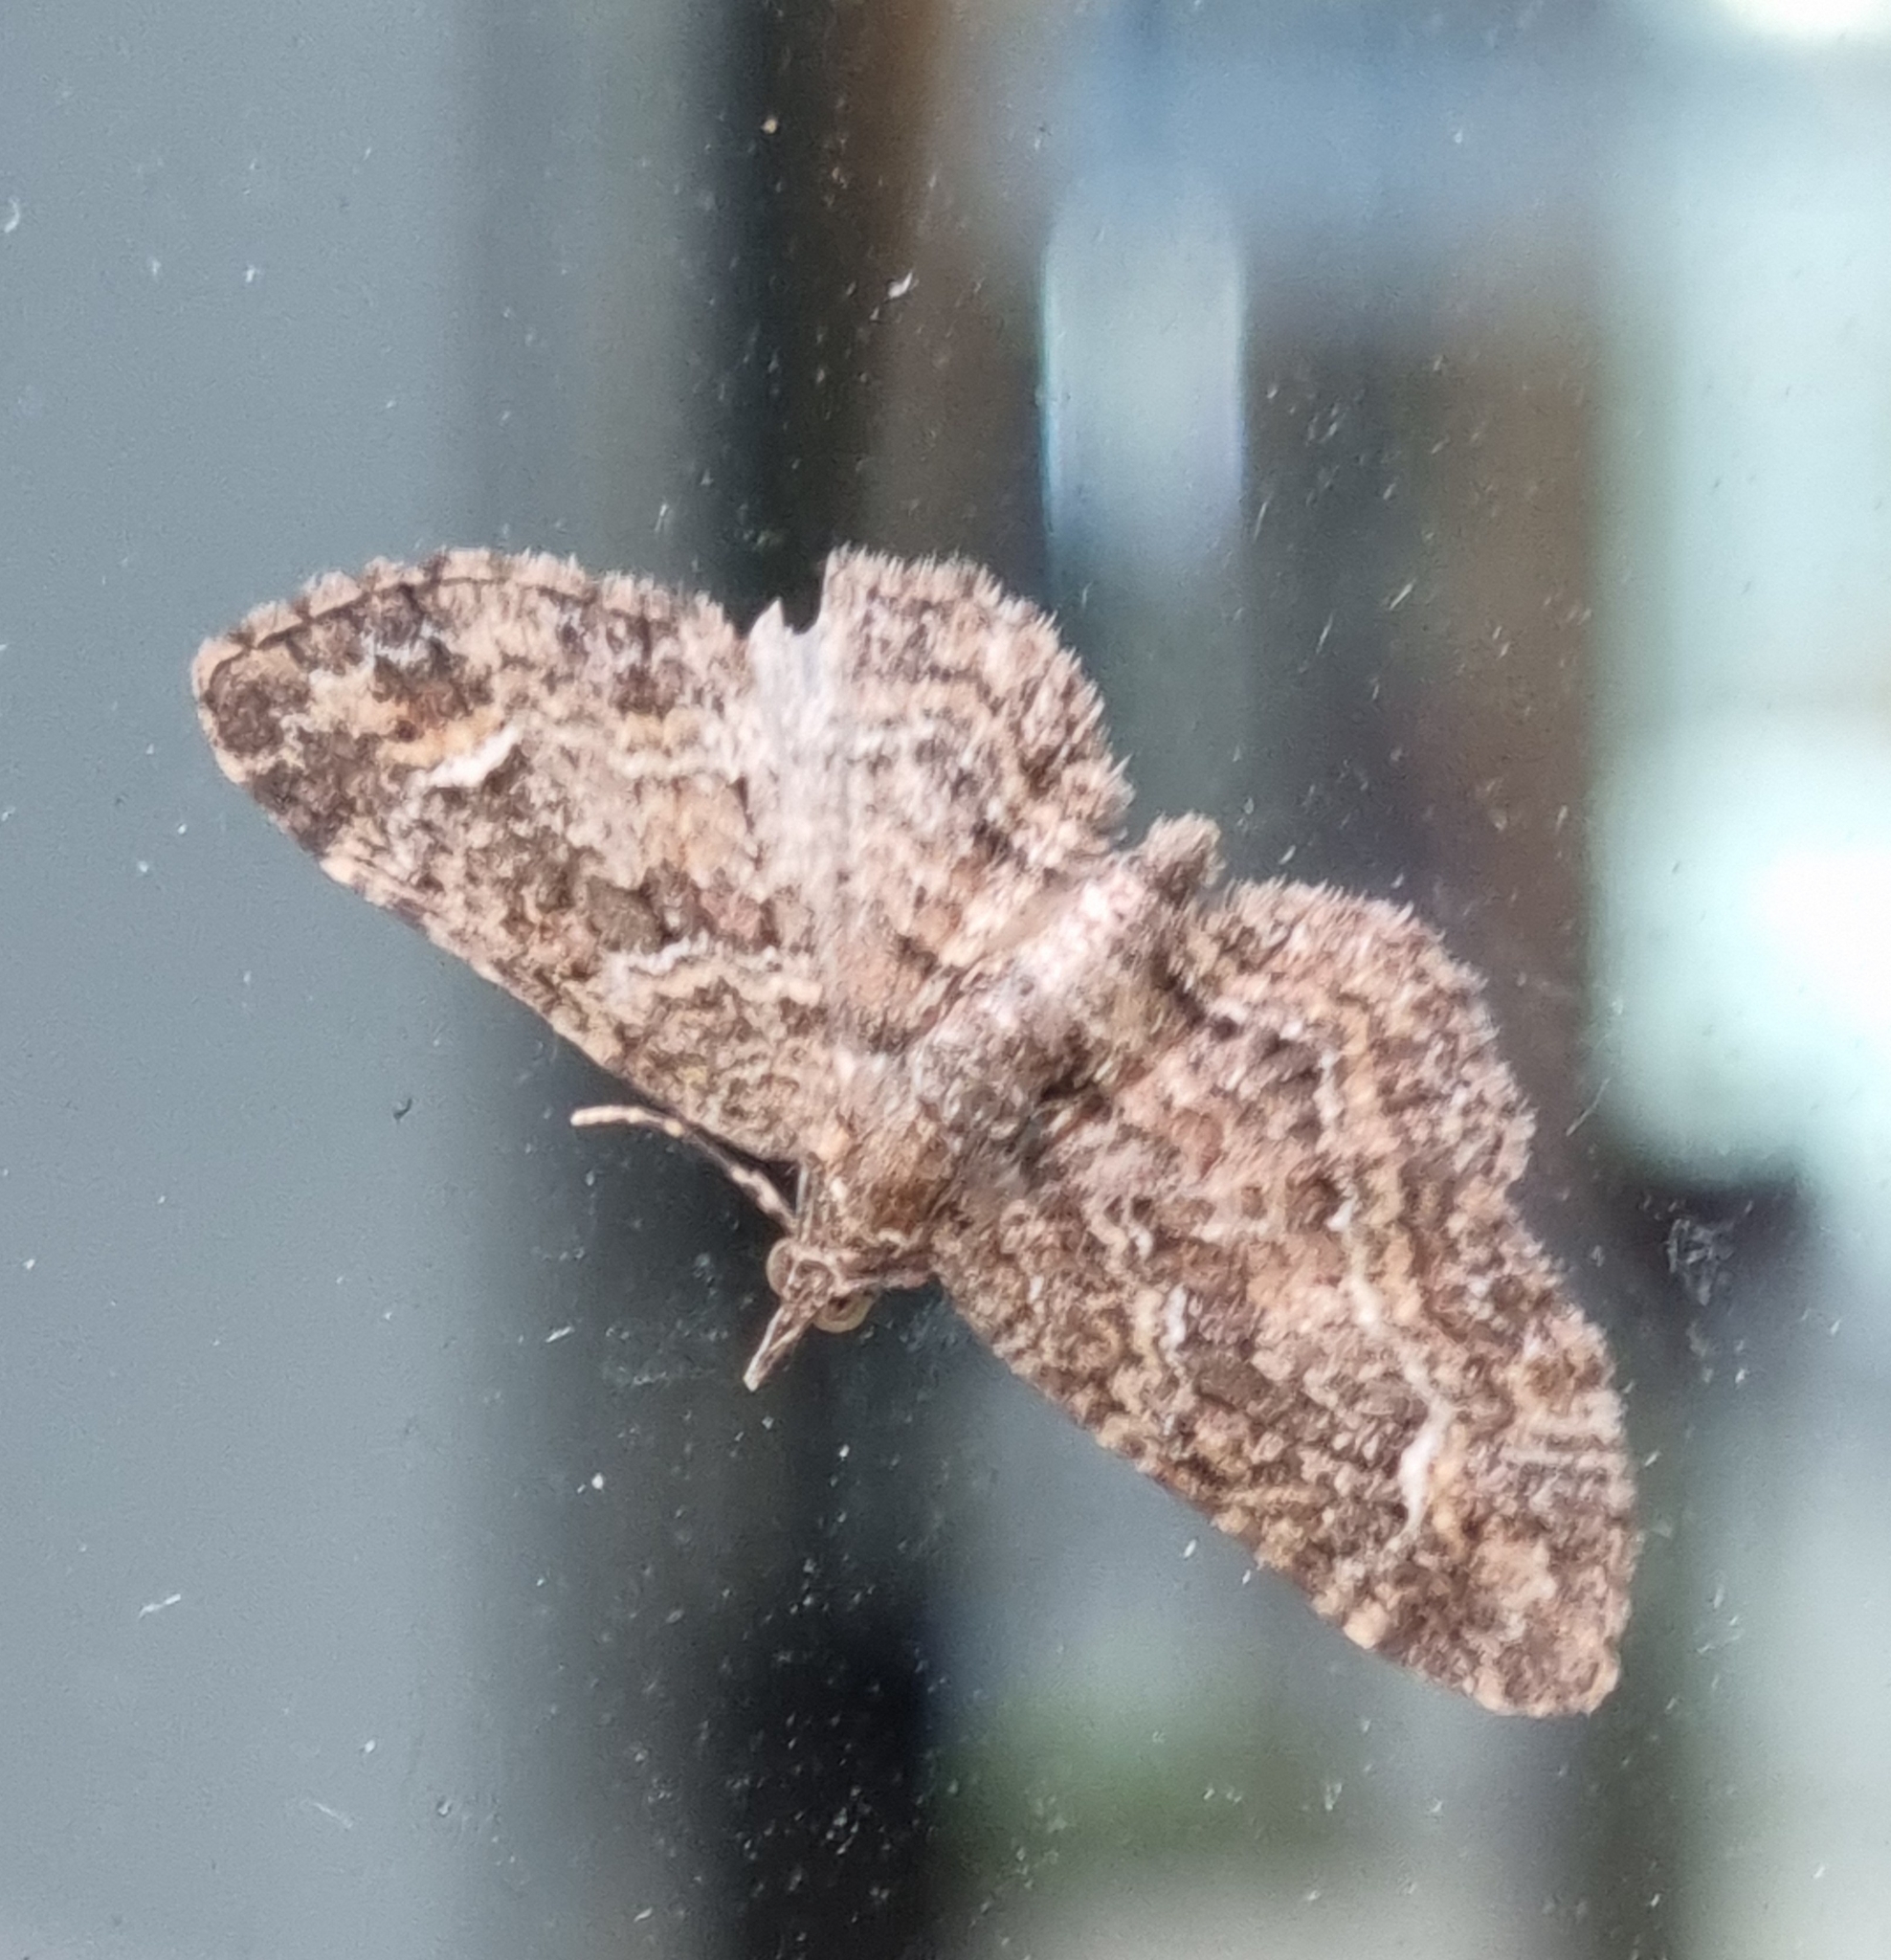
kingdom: Animalia
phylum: Arthropoda
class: Insecta
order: Lepidoptera
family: Geometridae
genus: Pasiphilodes
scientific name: Pasiphilodes testulata
